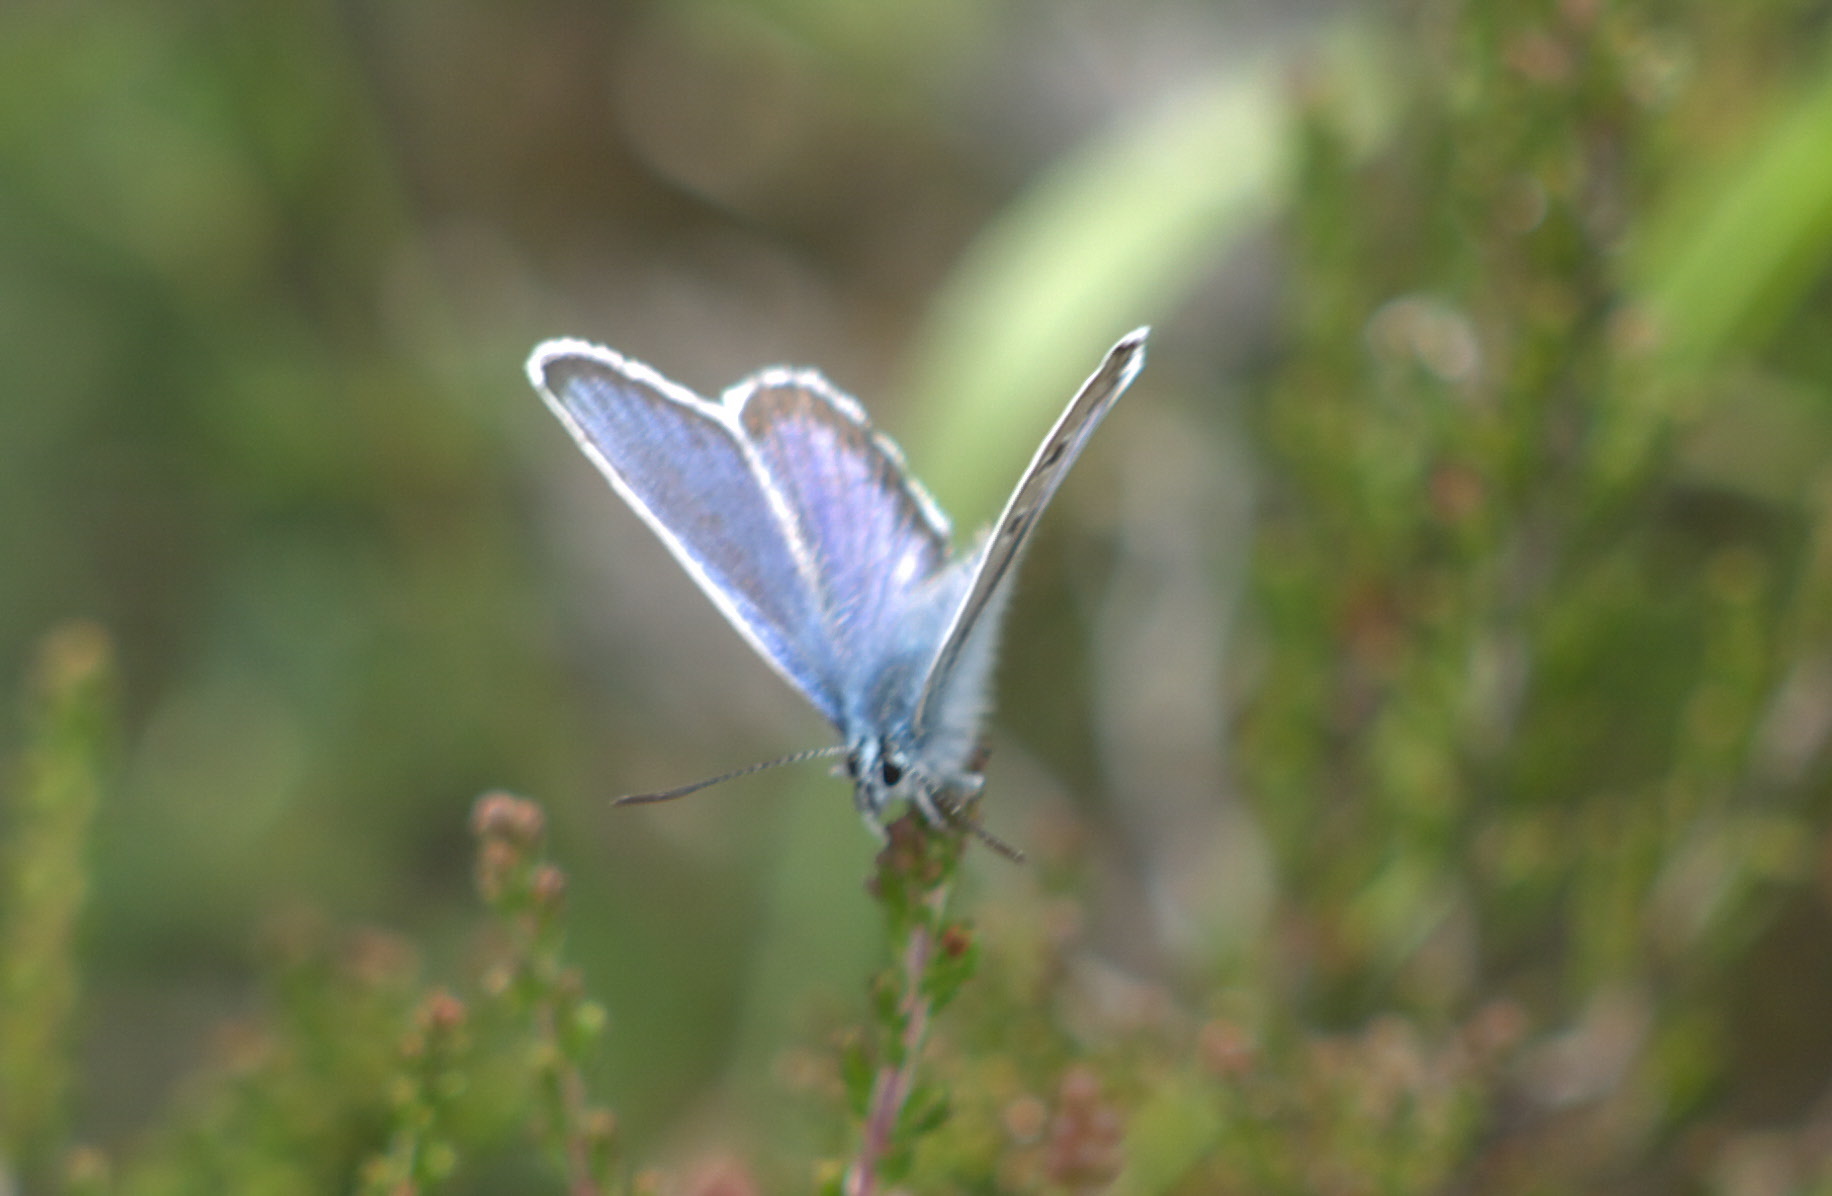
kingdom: Animalia
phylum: Arthropoda
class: Insecta
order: Lepidoptera
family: Lycaenidae
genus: Plebejus
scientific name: Plebejus argus
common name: Silver-studded blue
